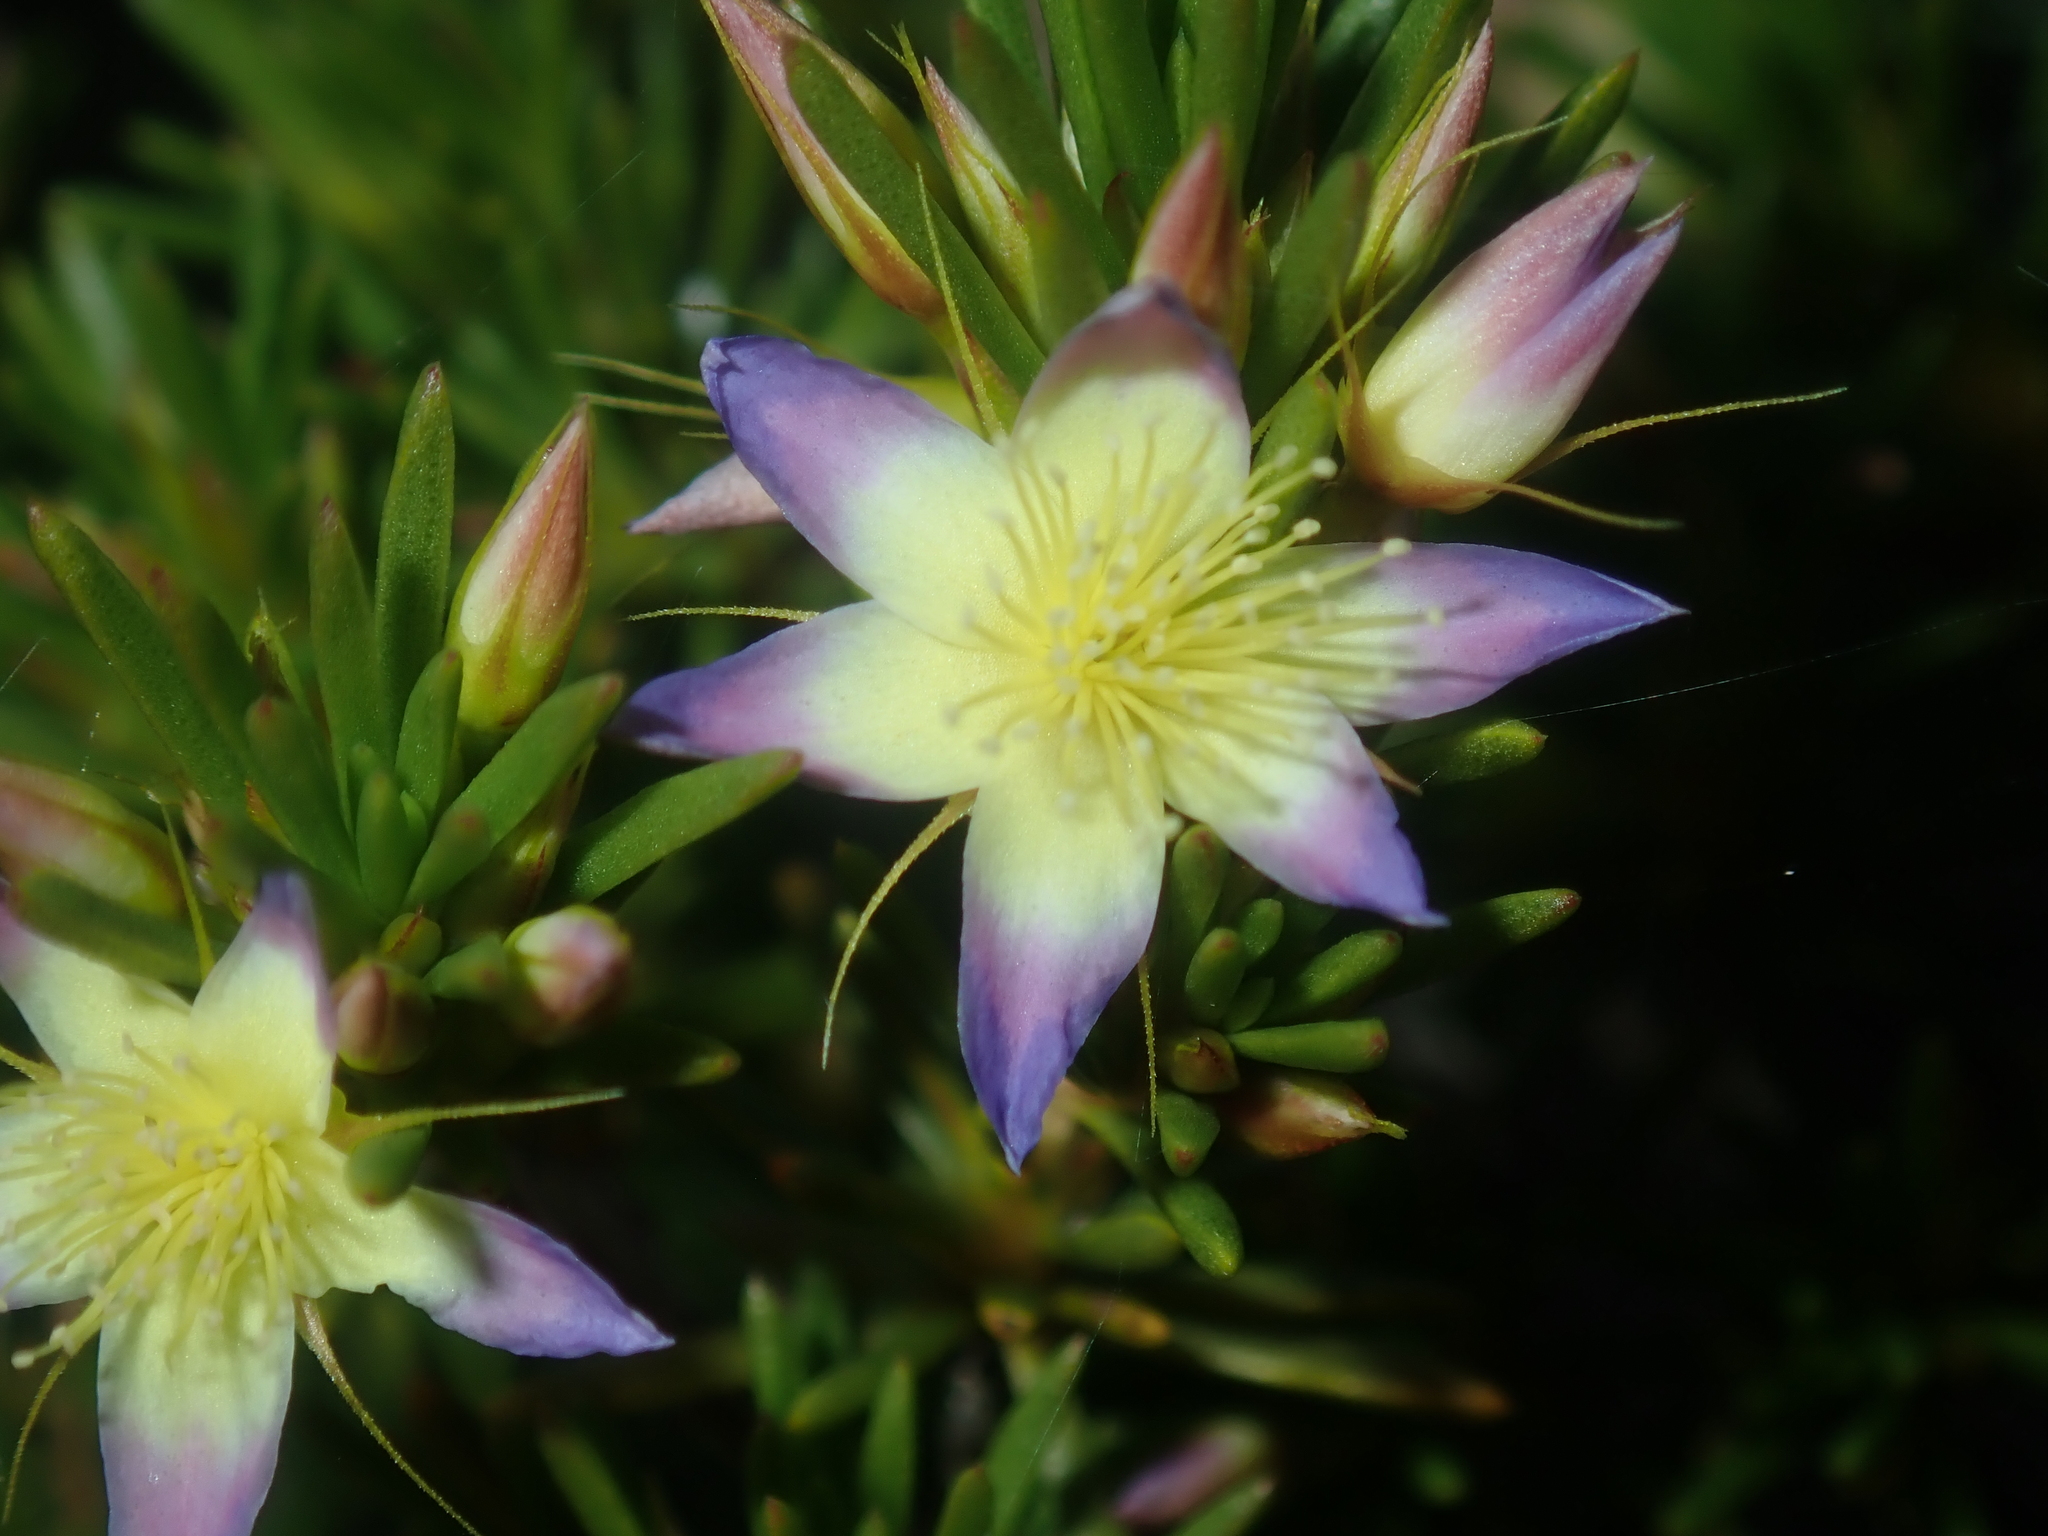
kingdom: Plantae
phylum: Tracheophyta
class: Magnoliopsida
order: Myrtales
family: Myrtaceae
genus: Calytrix
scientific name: Calytrix depressa
